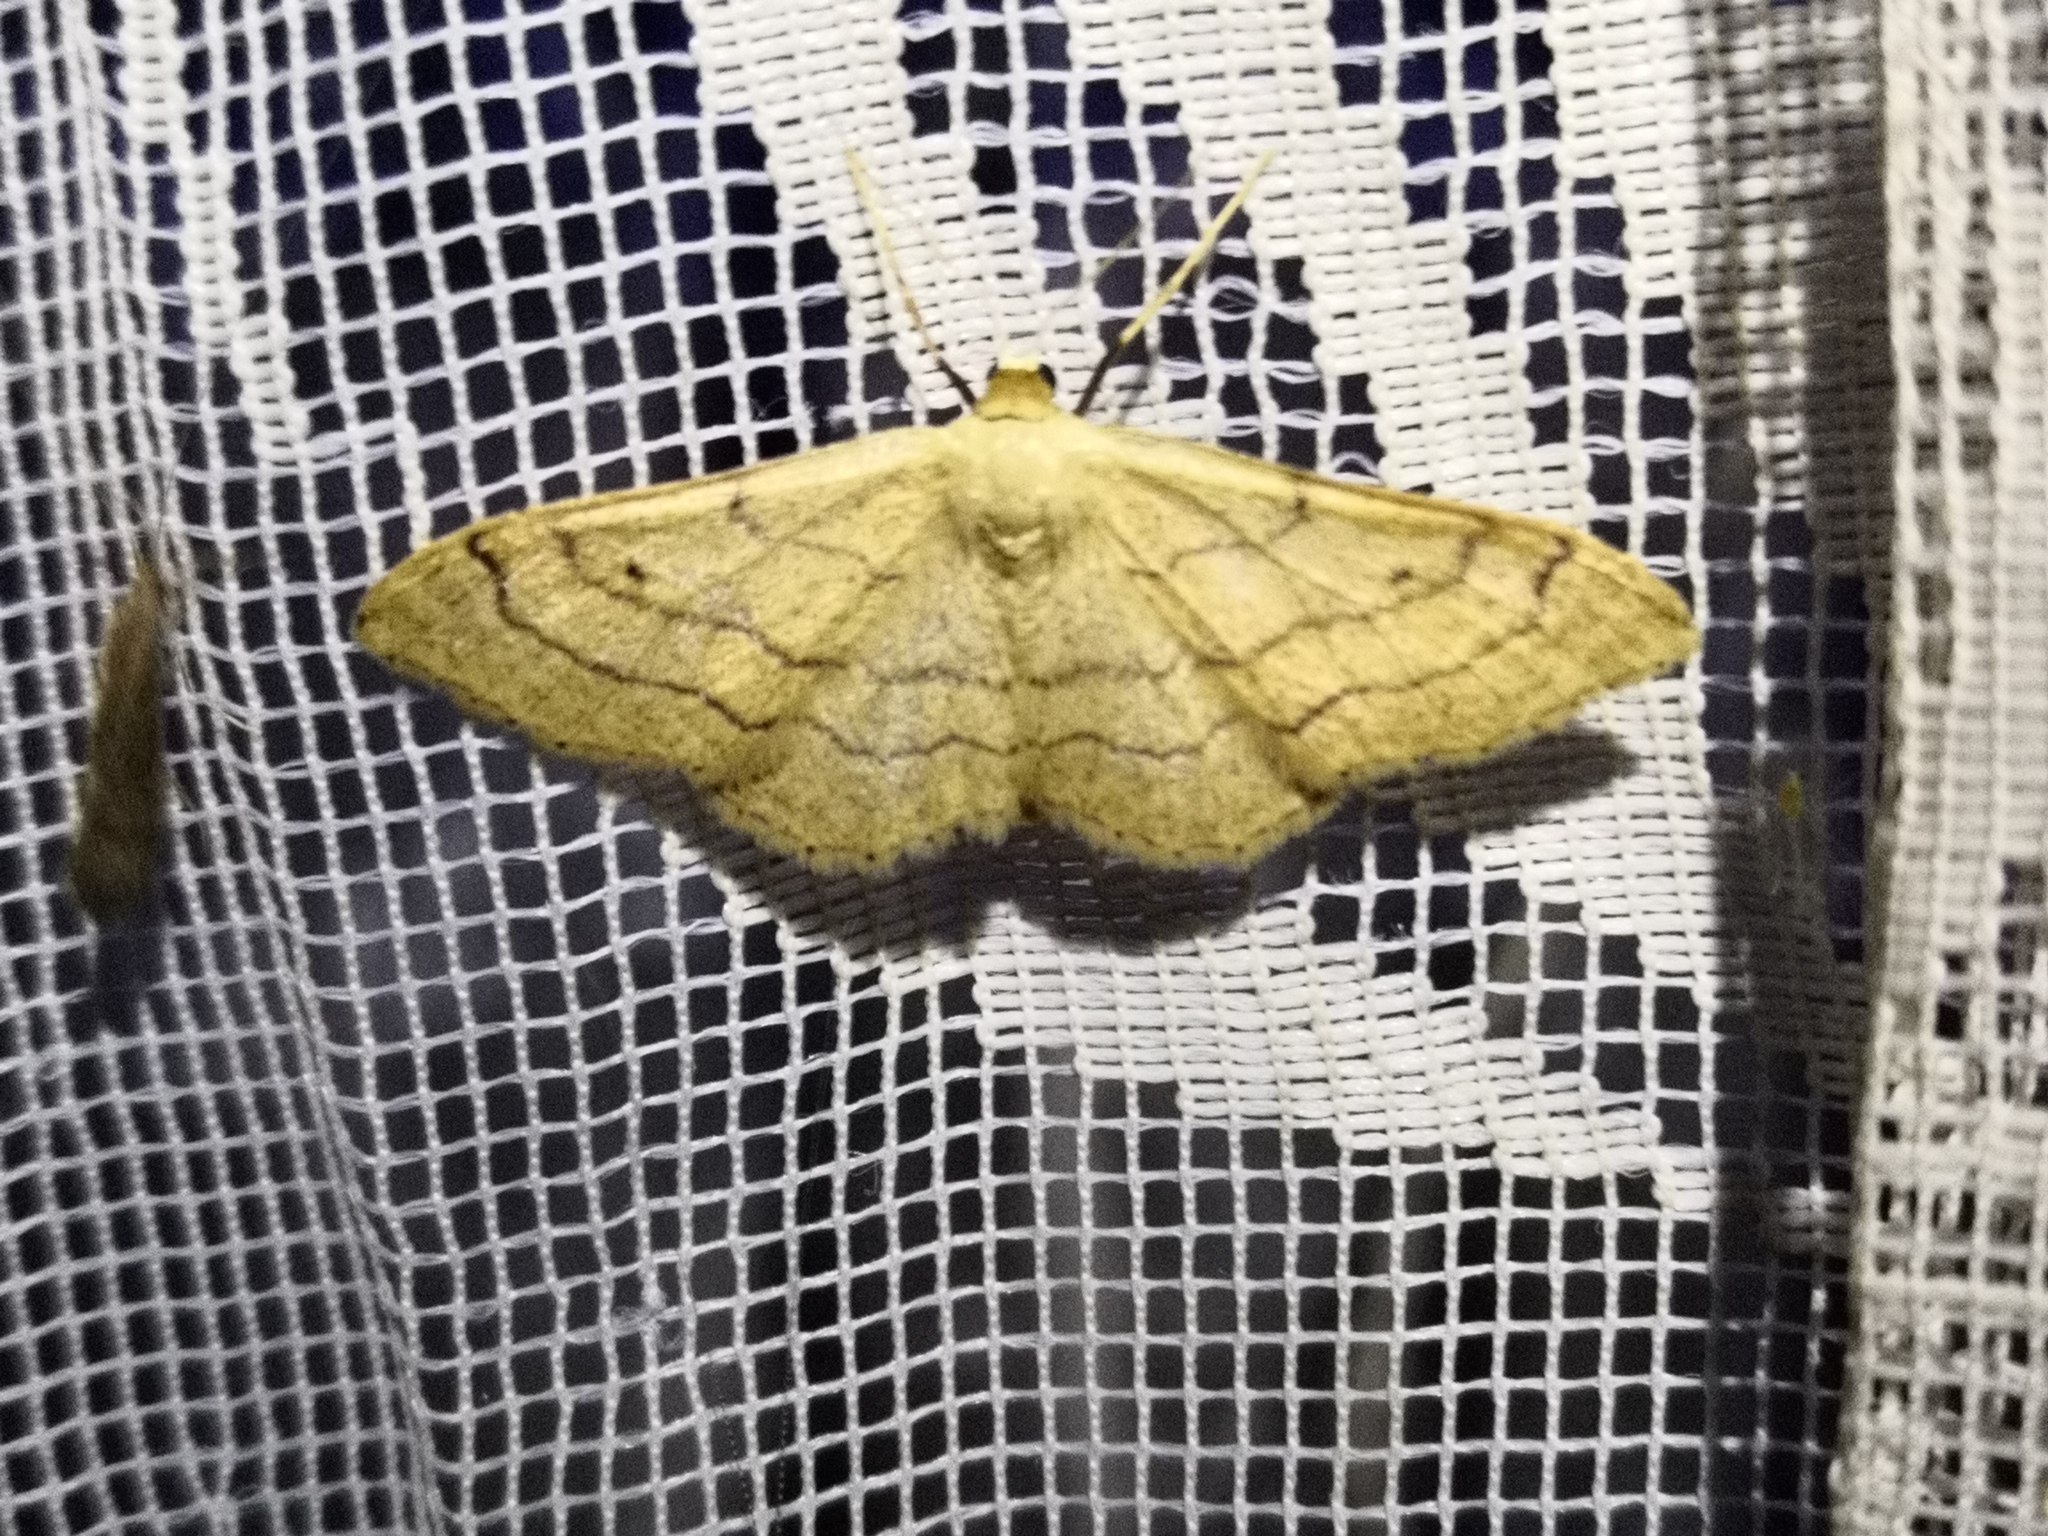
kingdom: Animalia
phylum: Arthropoda
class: Insecta
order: Lepidoptera
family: Geometridae
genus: Idaea
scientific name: Idaea aversata
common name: Riband wave
